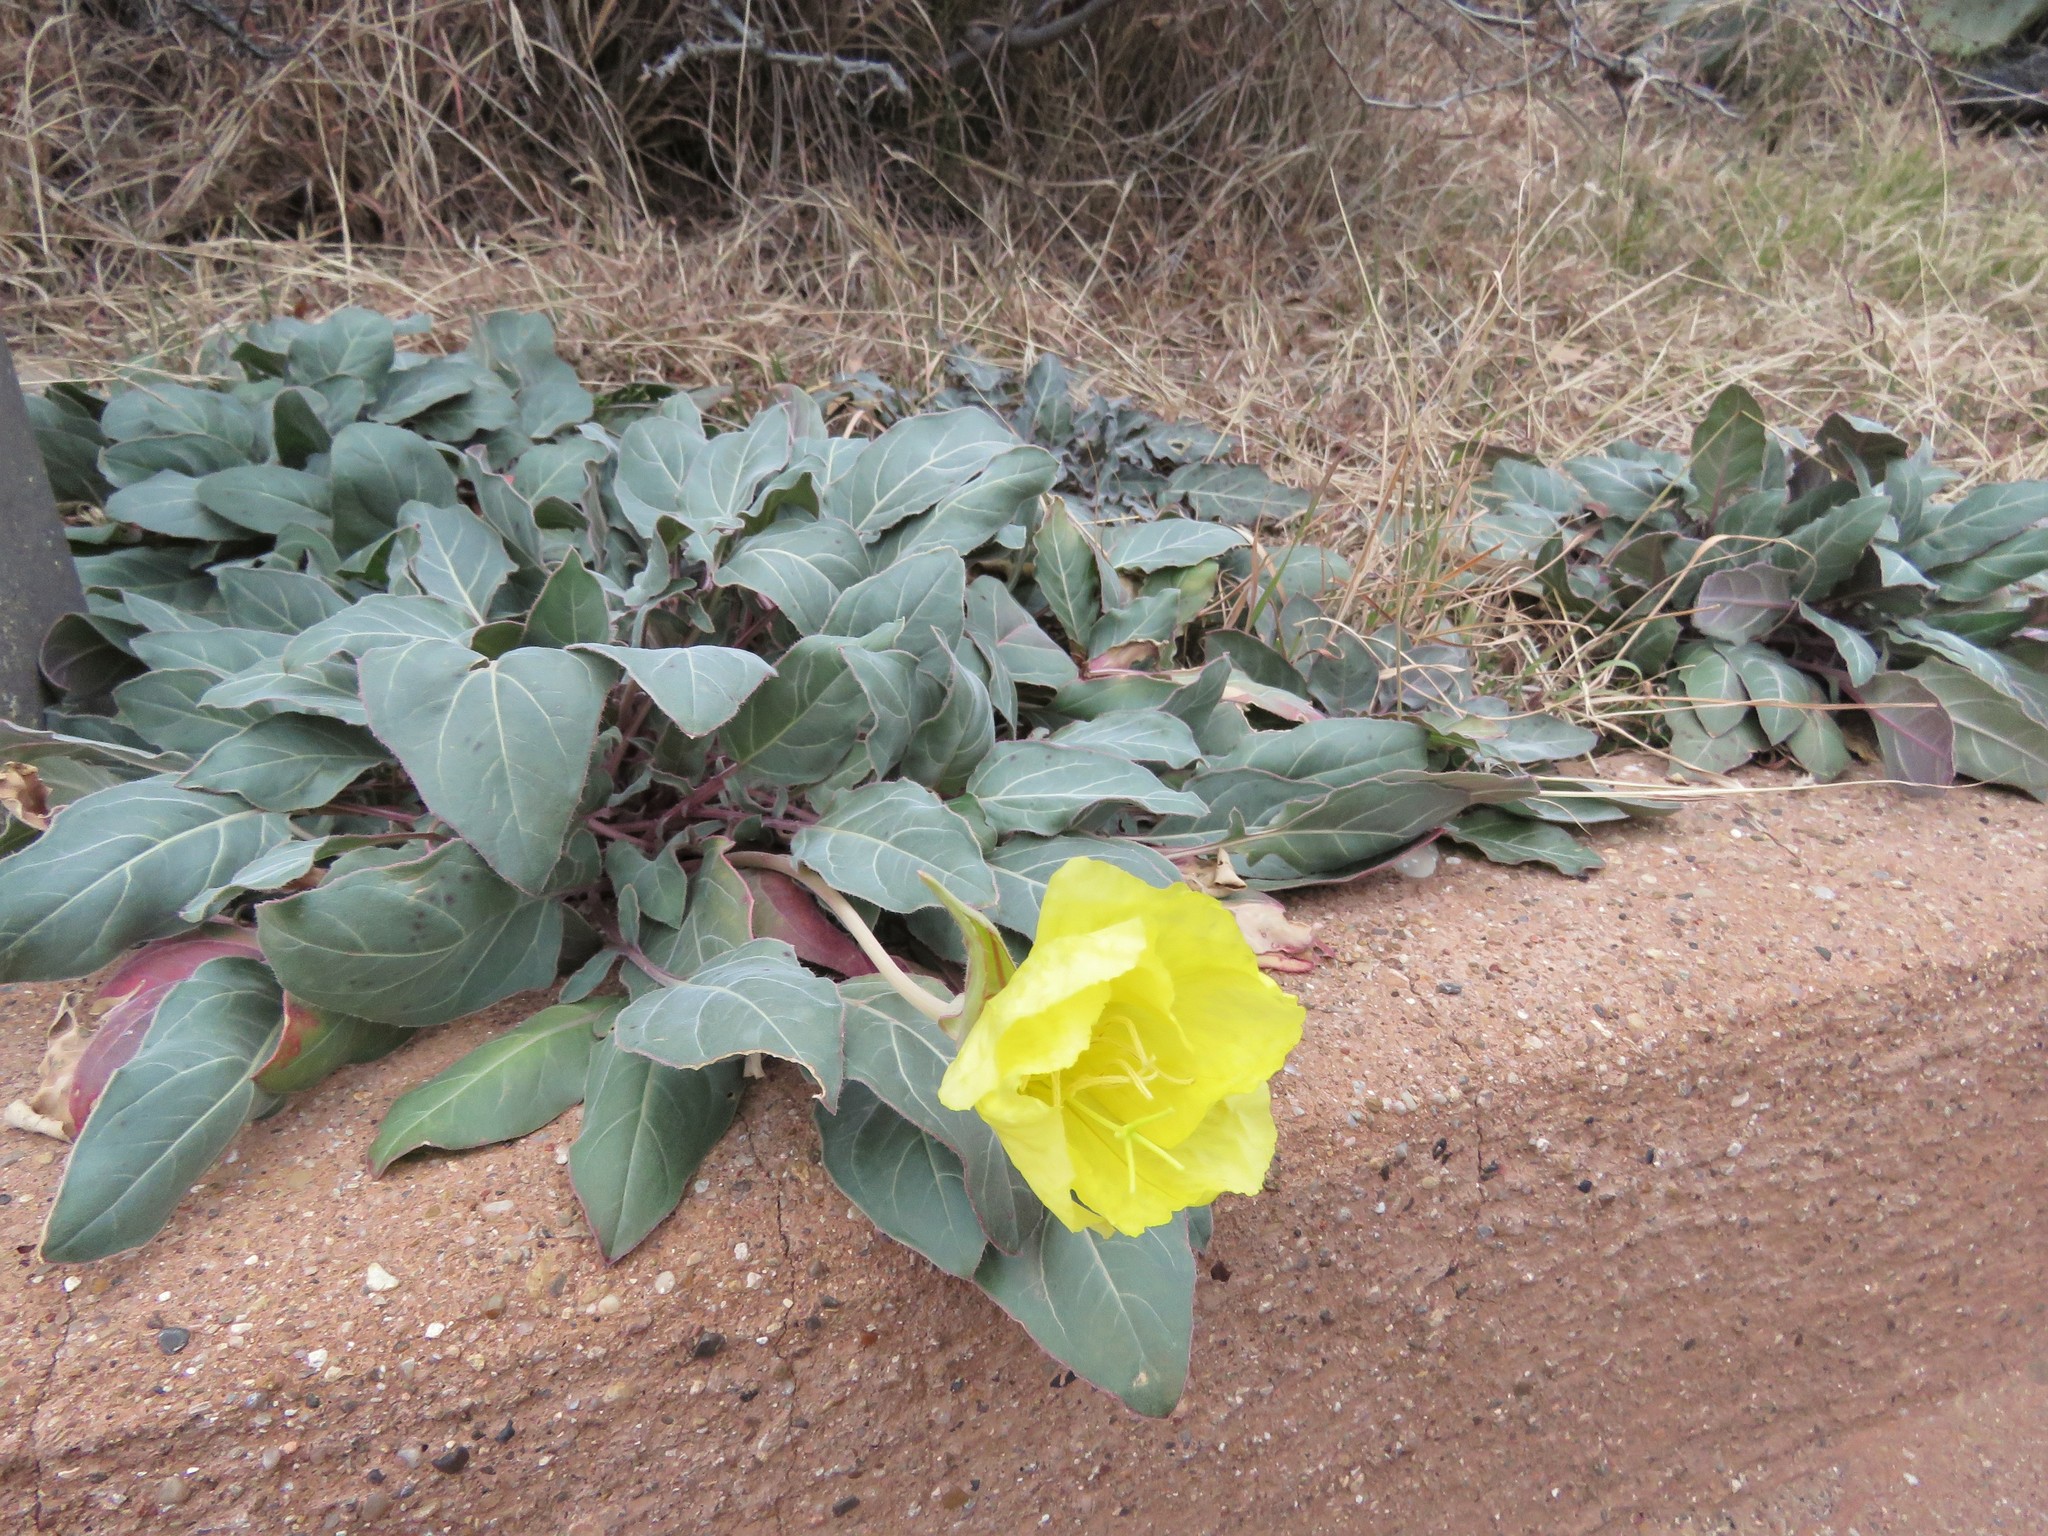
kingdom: Plantae
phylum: Tracheophyta
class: Magnoliopsida
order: Myrtales
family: Onagraceae
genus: Oenothera
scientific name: Oenothera brachycarpa
